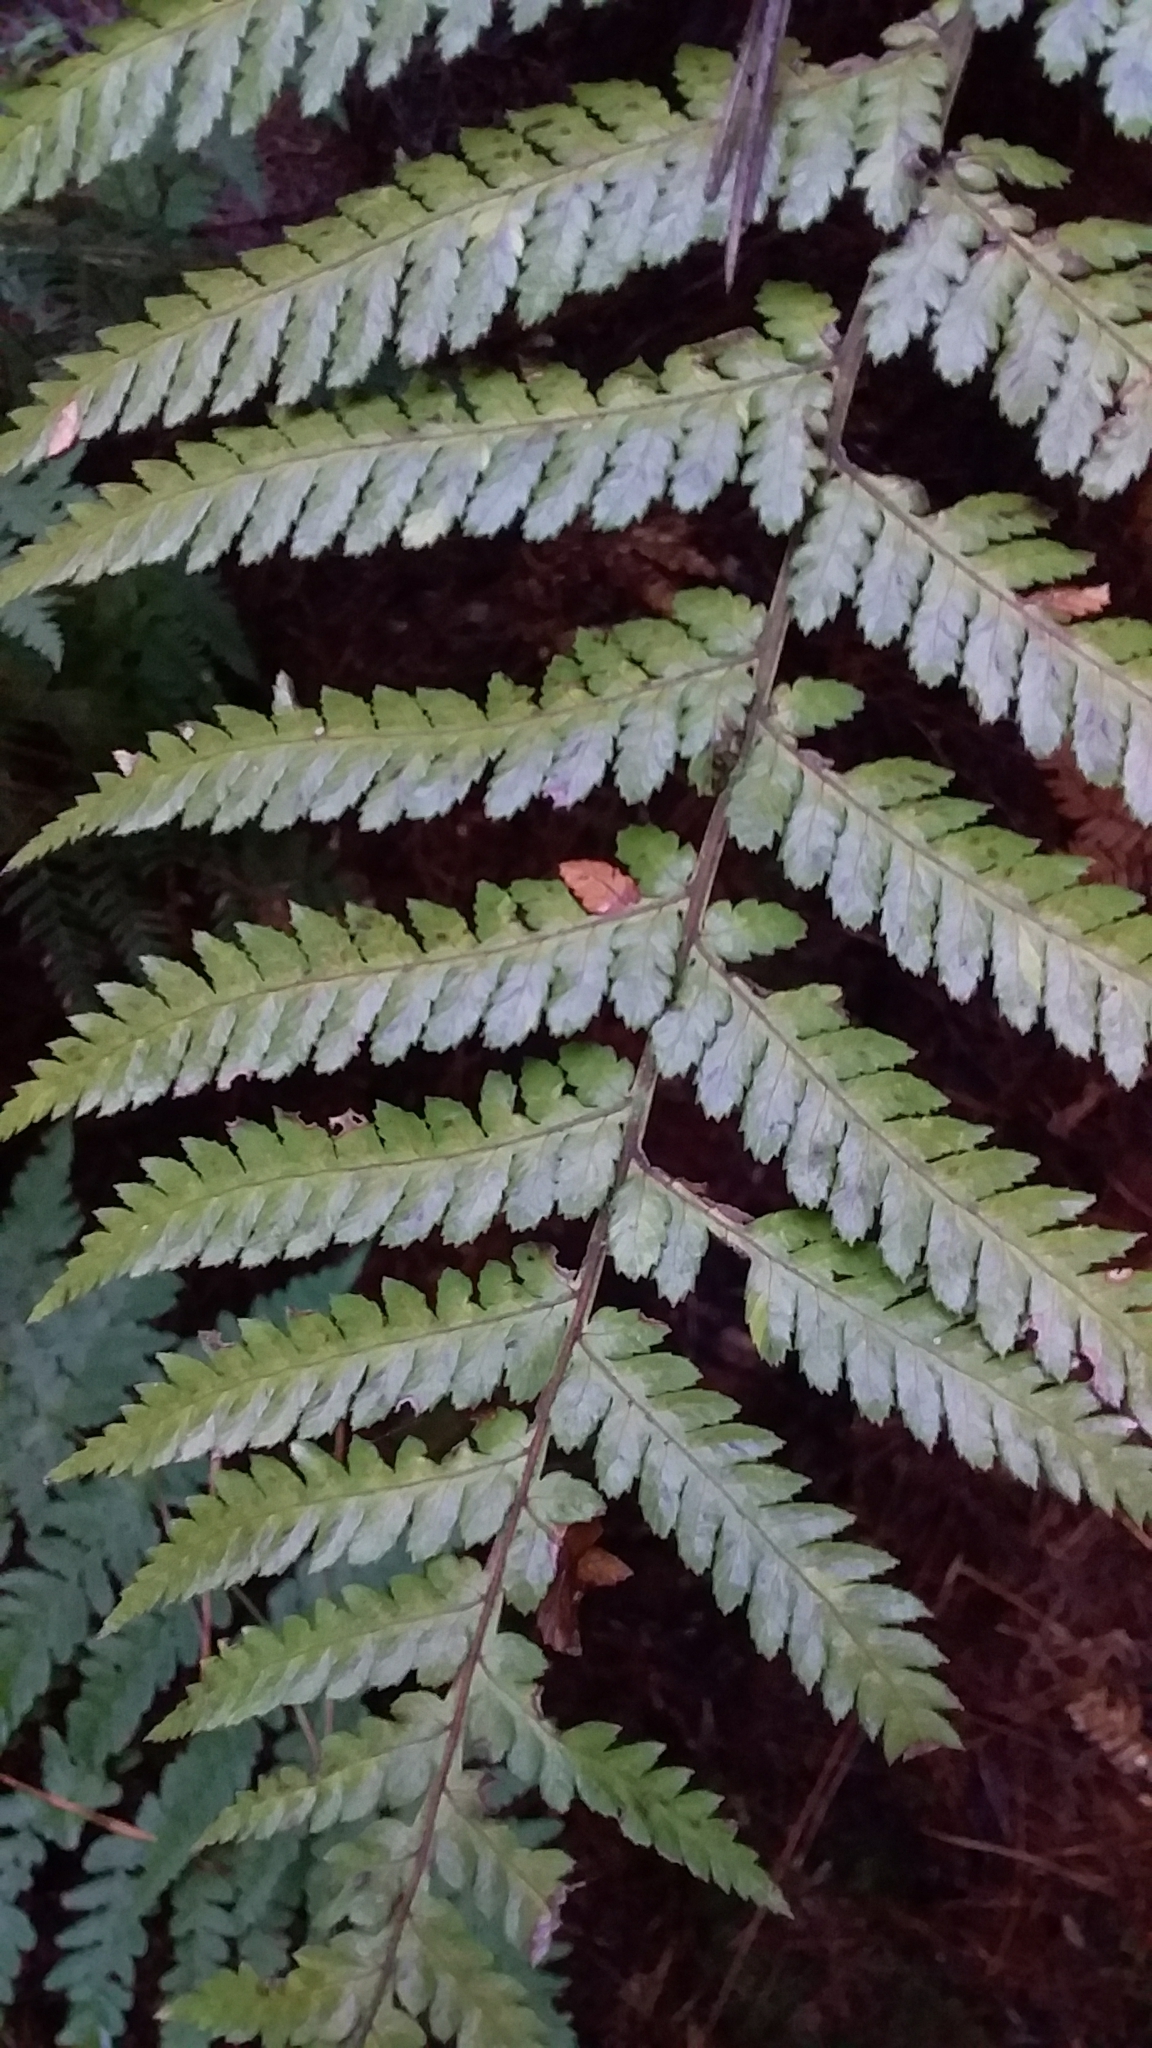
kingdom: Plantae
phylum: Tracheophyta
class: Polypodiopsida
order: Cyatheales
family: Dicksoniaceae
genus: Dicksonia
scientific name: Dicksonia squarrosa
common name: Hard treefern
